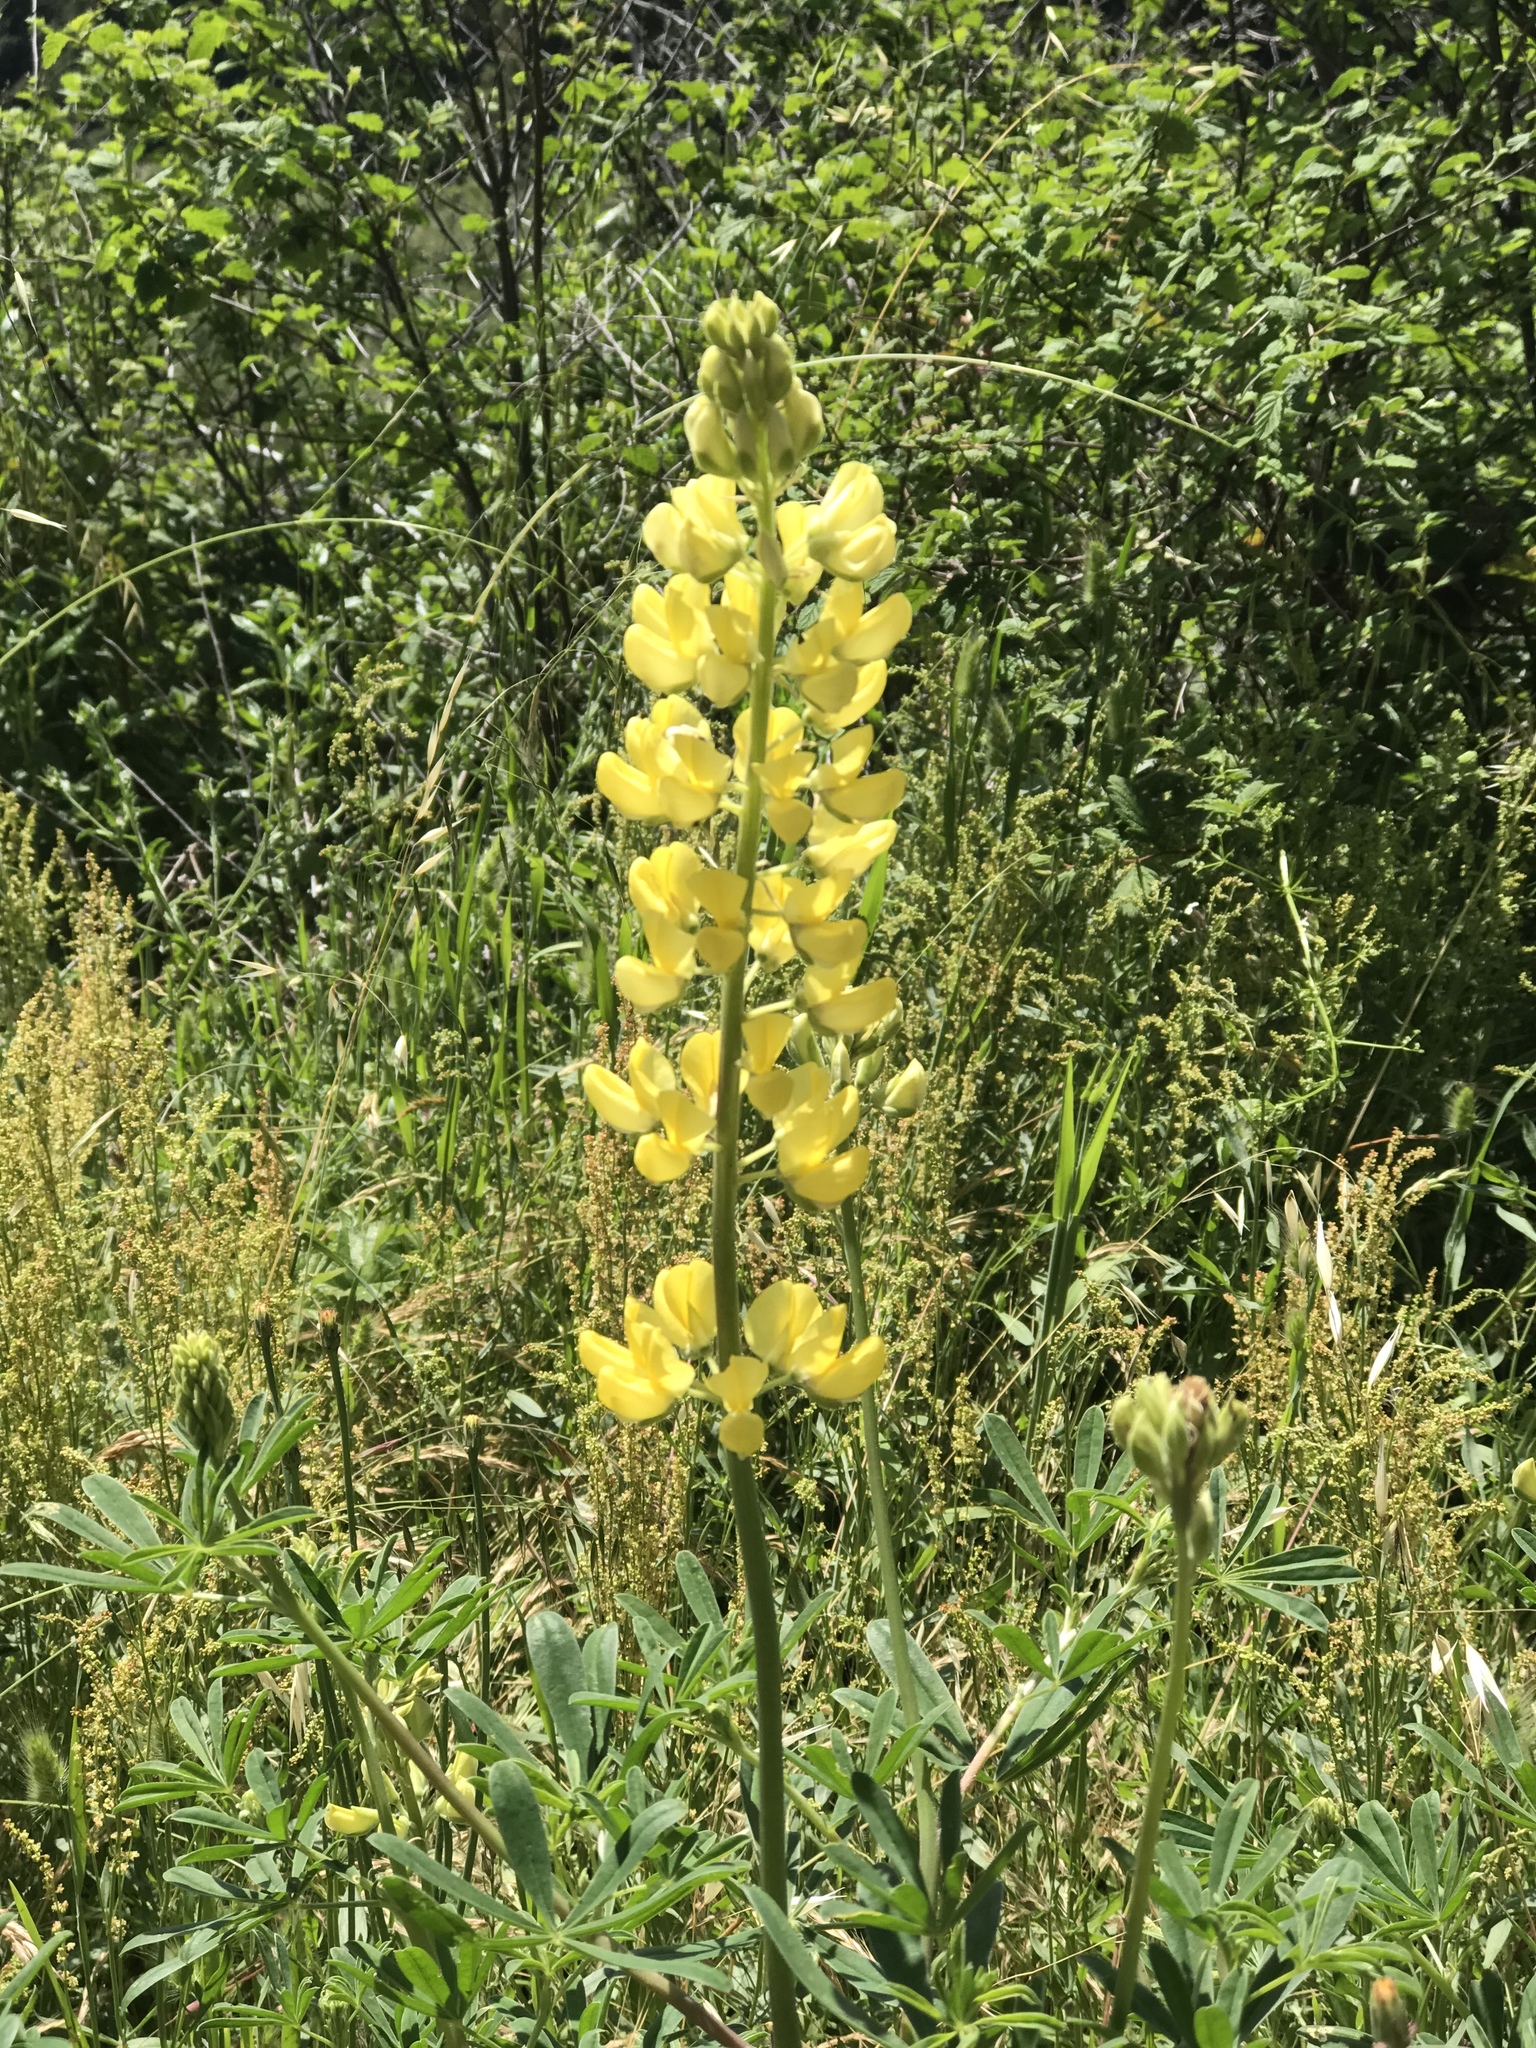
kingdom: Plantae
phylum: Tracheophyta
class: Magnoliopsida
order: Fabales
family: Fabaceae
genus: Lupinus
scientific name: Lupinus arboreus
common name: Yellow bush lupine
